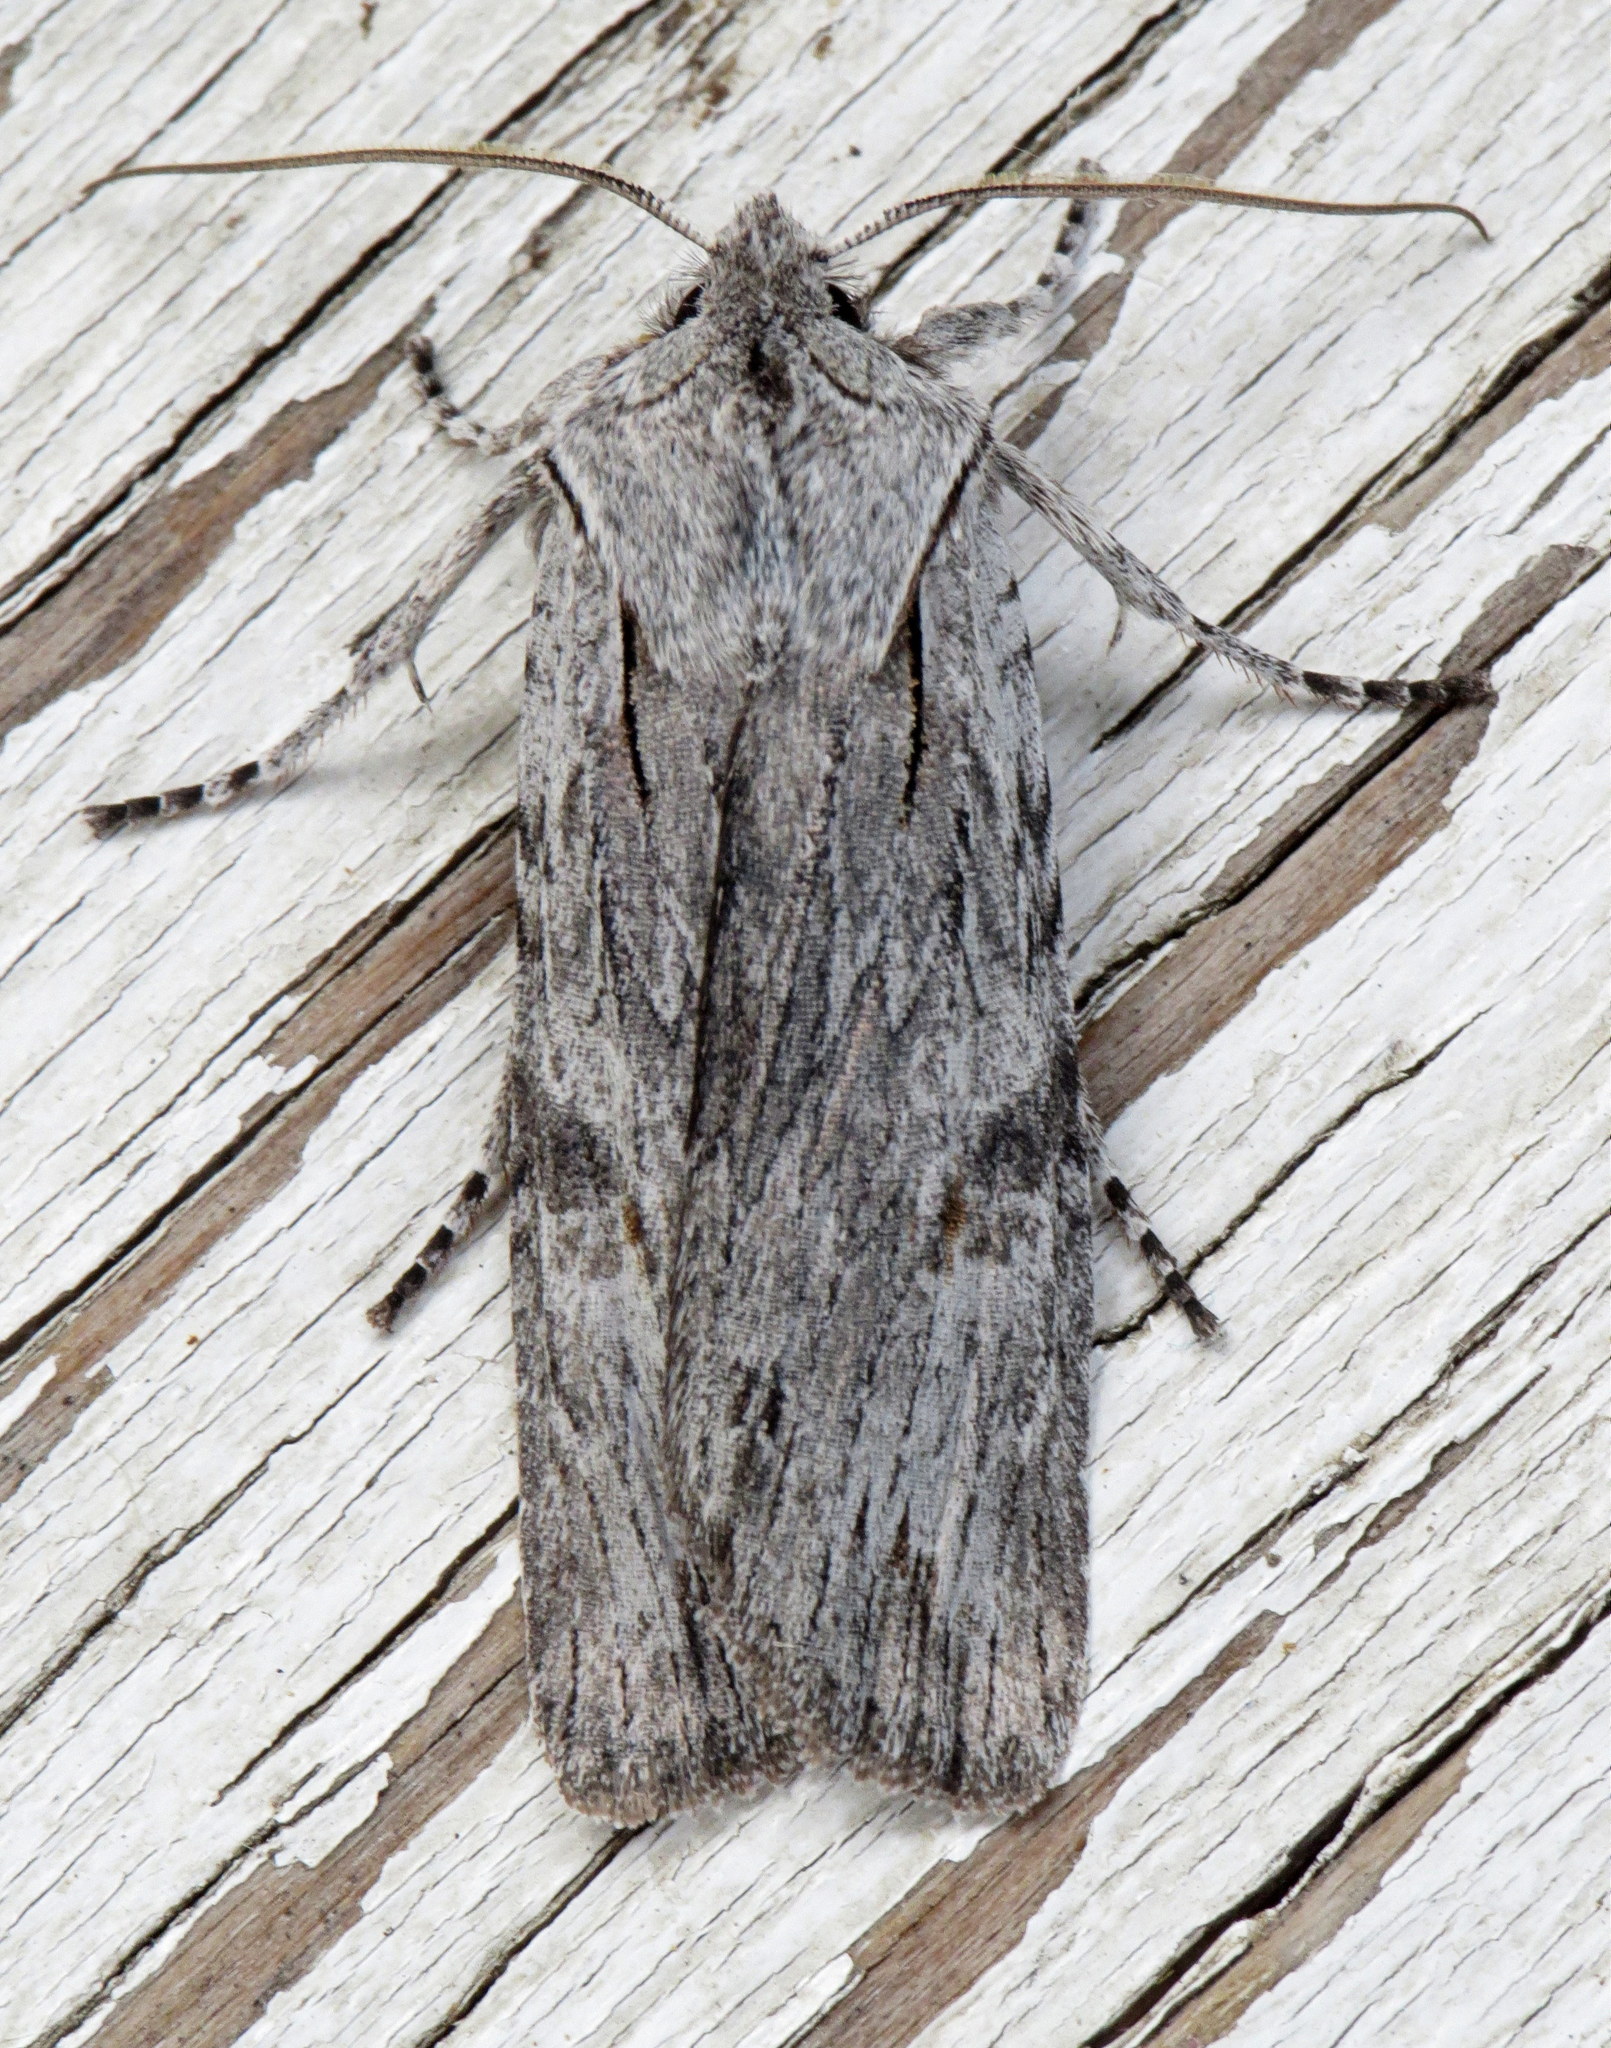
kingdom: Animalia
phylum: Arthropoda
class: Insecta
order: Lepidoptera
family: Noctuidae
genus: Lithophane
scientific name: Lithophane georgii
